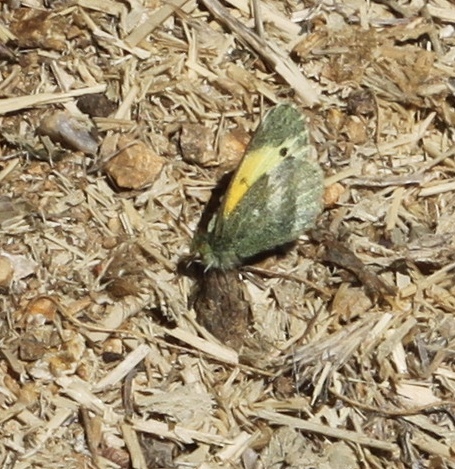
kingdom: Animalia
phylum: Arthropoda
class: Insecta
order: Lepidoptera
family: Pieridae
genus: Nathalis
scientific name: Nathalis iole
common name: Dainty sulphur
